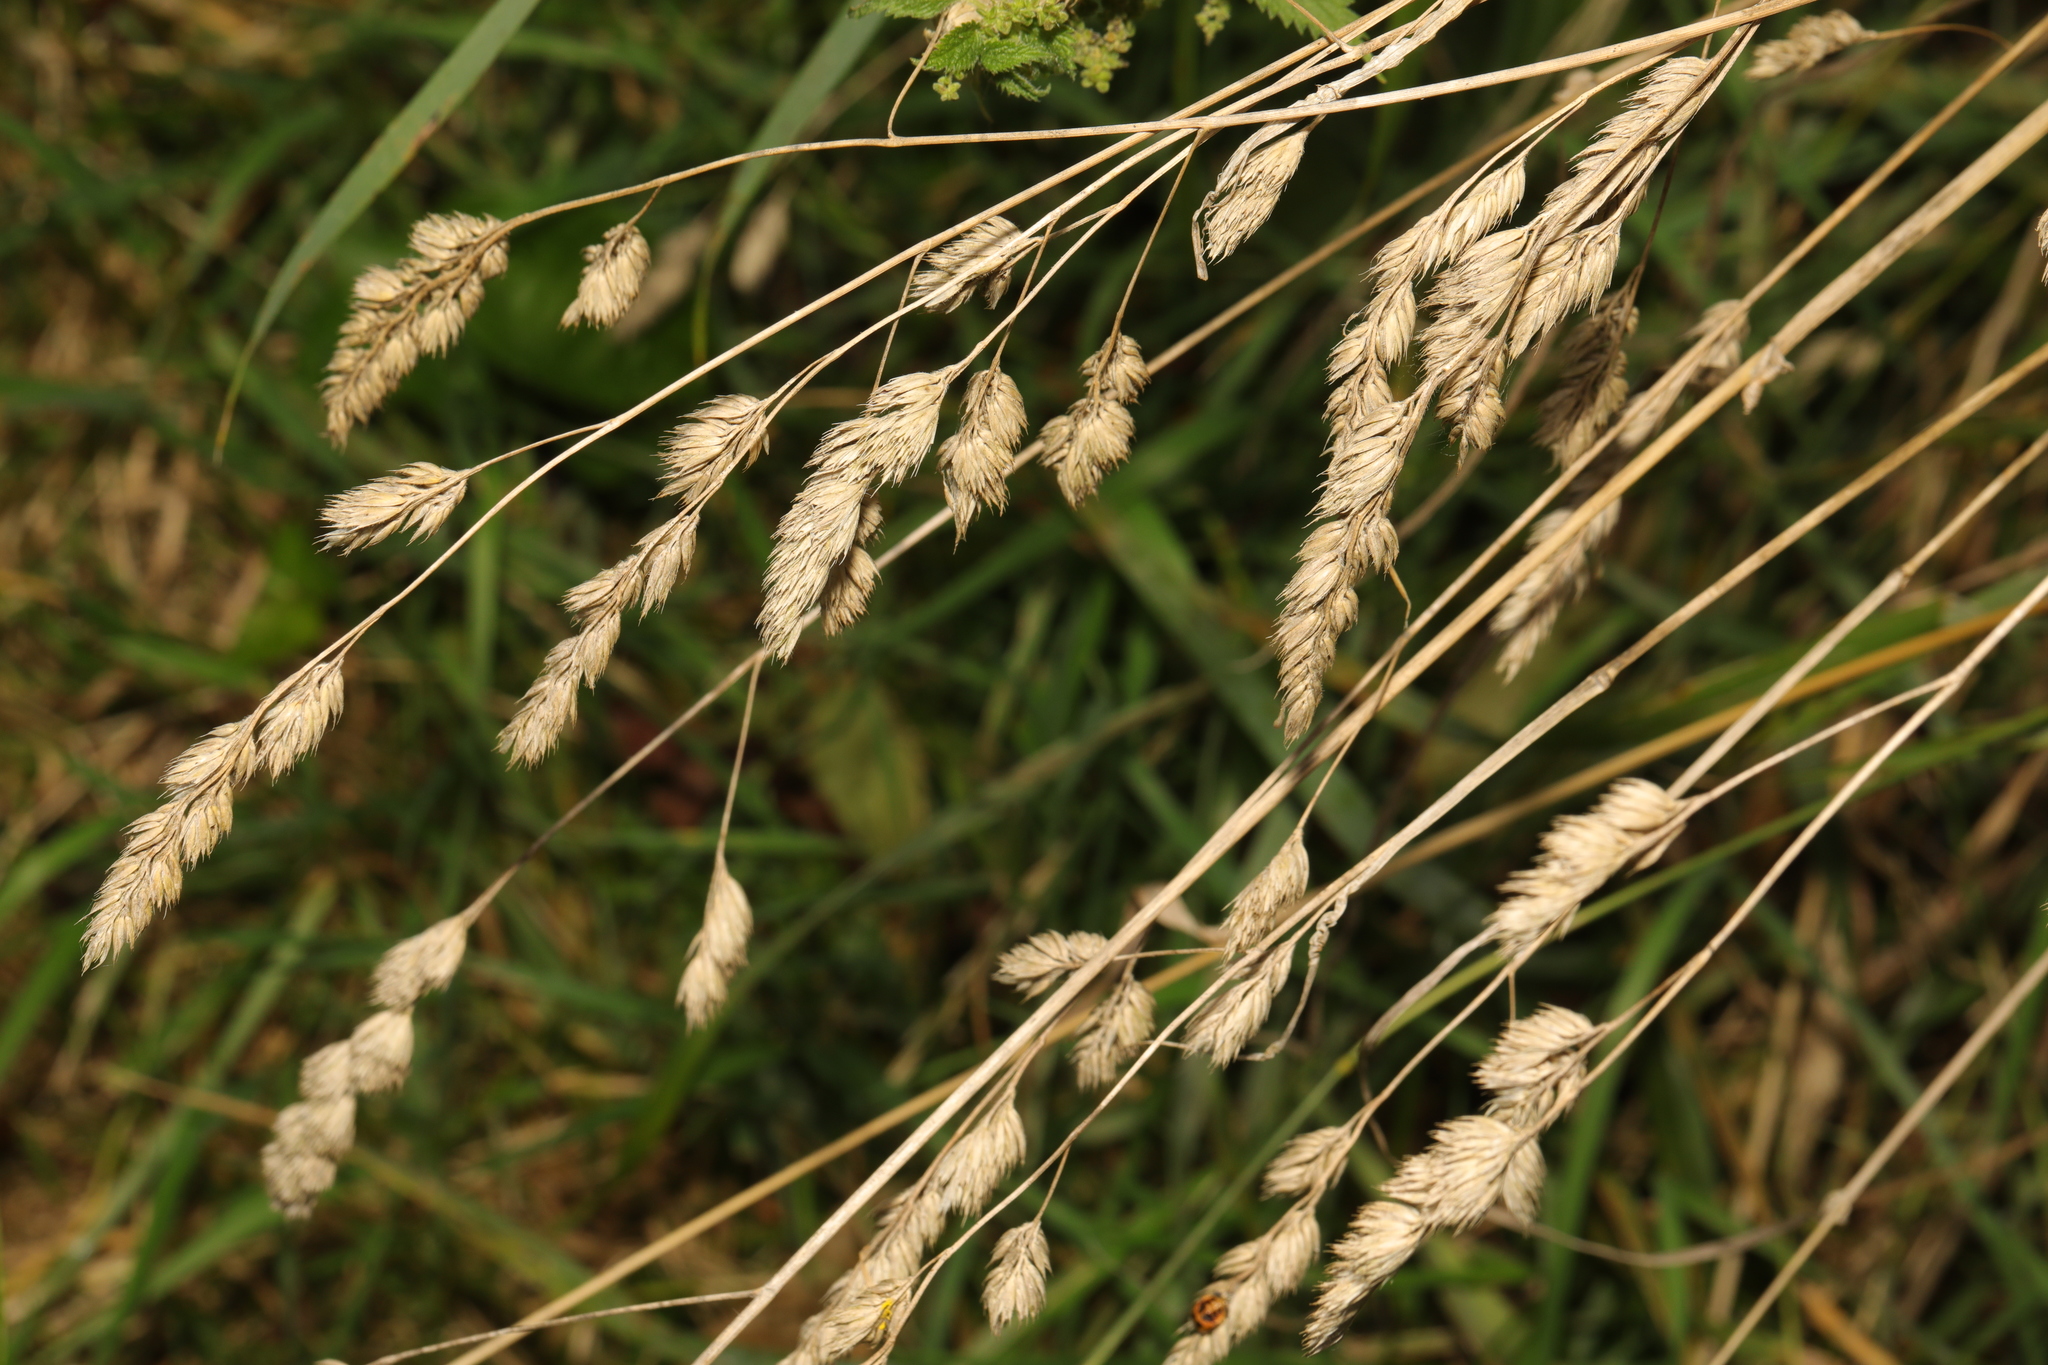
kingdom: Plantae
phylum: Tracheophyta
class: Liliopsida
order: Poales
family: Poaceae
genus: Dactylis
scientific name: Dactylis glomerata
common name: Orchardgrass
